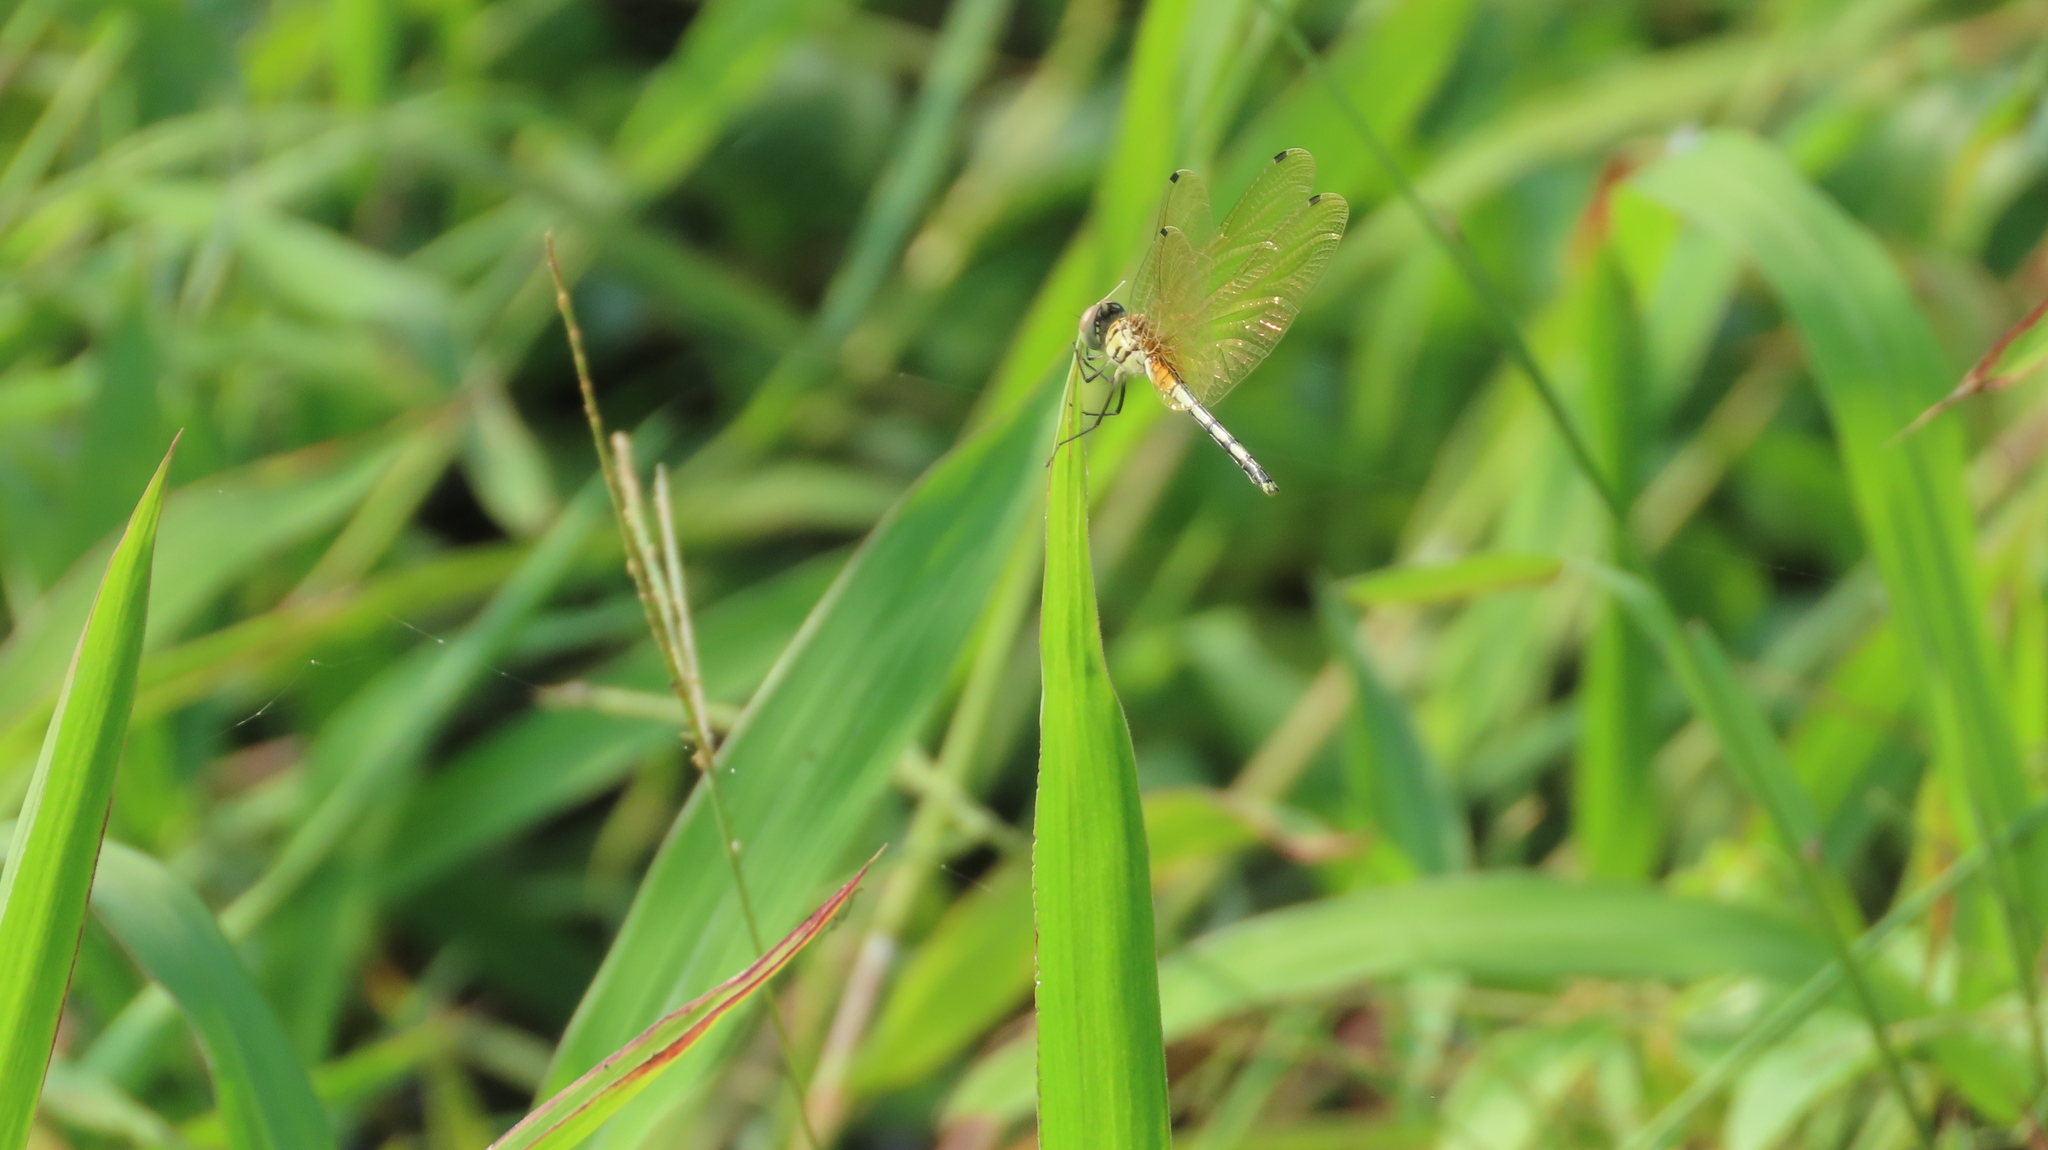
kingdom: Animalia
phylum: Arthropoda
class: Insecta
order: Odonata
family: Libellulidae
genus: Trithemis
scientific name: Trithemis pallidinervis
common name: Dancing dropwing
